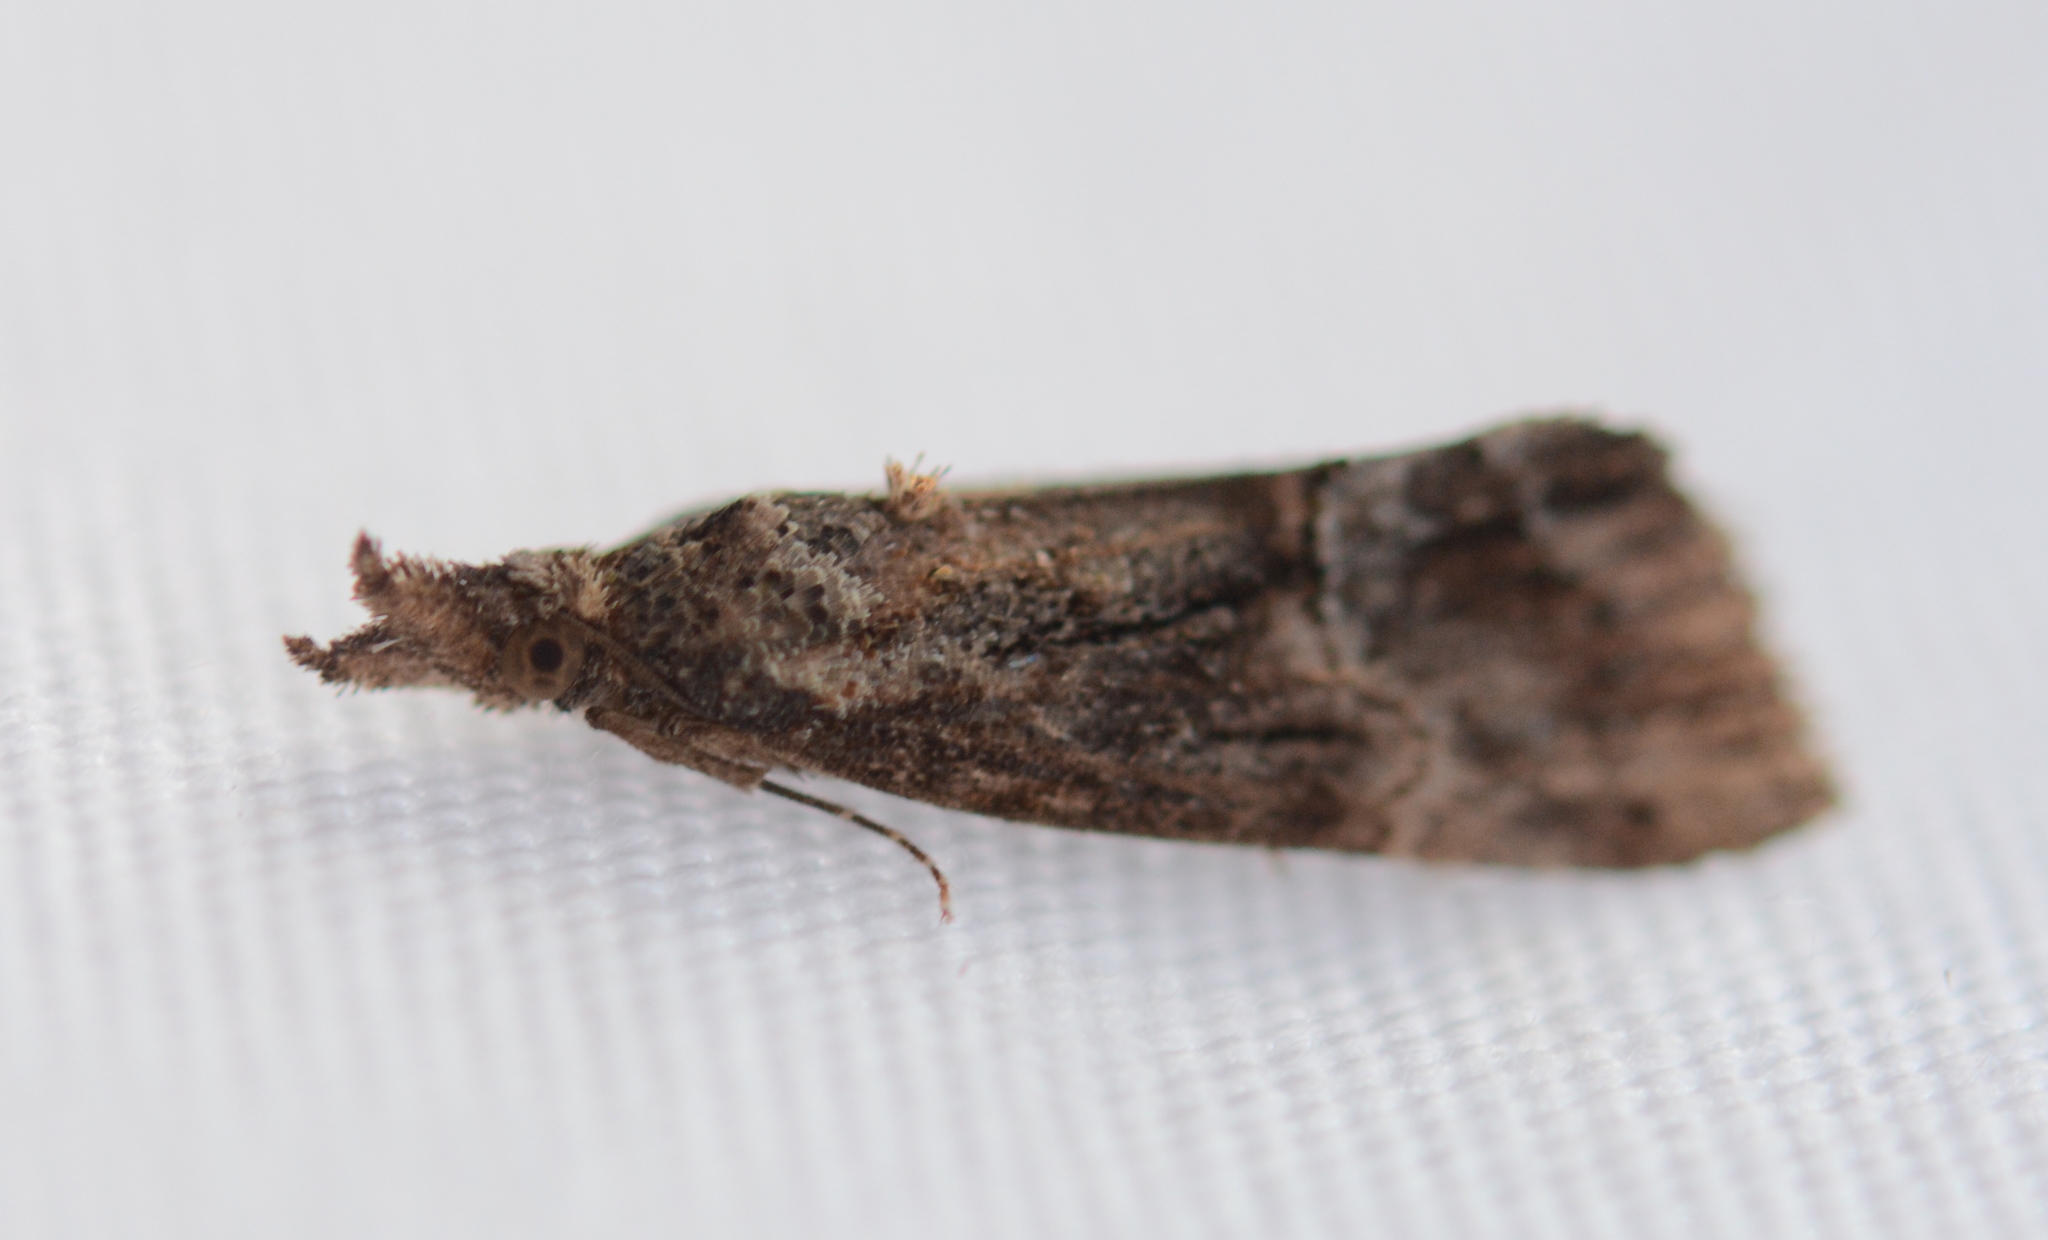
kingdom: Animalia
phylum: Arthropoda
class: Insecta
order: Lepidoptera
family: Erebidae
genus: Hypena
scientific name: Hypena scabra
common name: Green cloverworm
